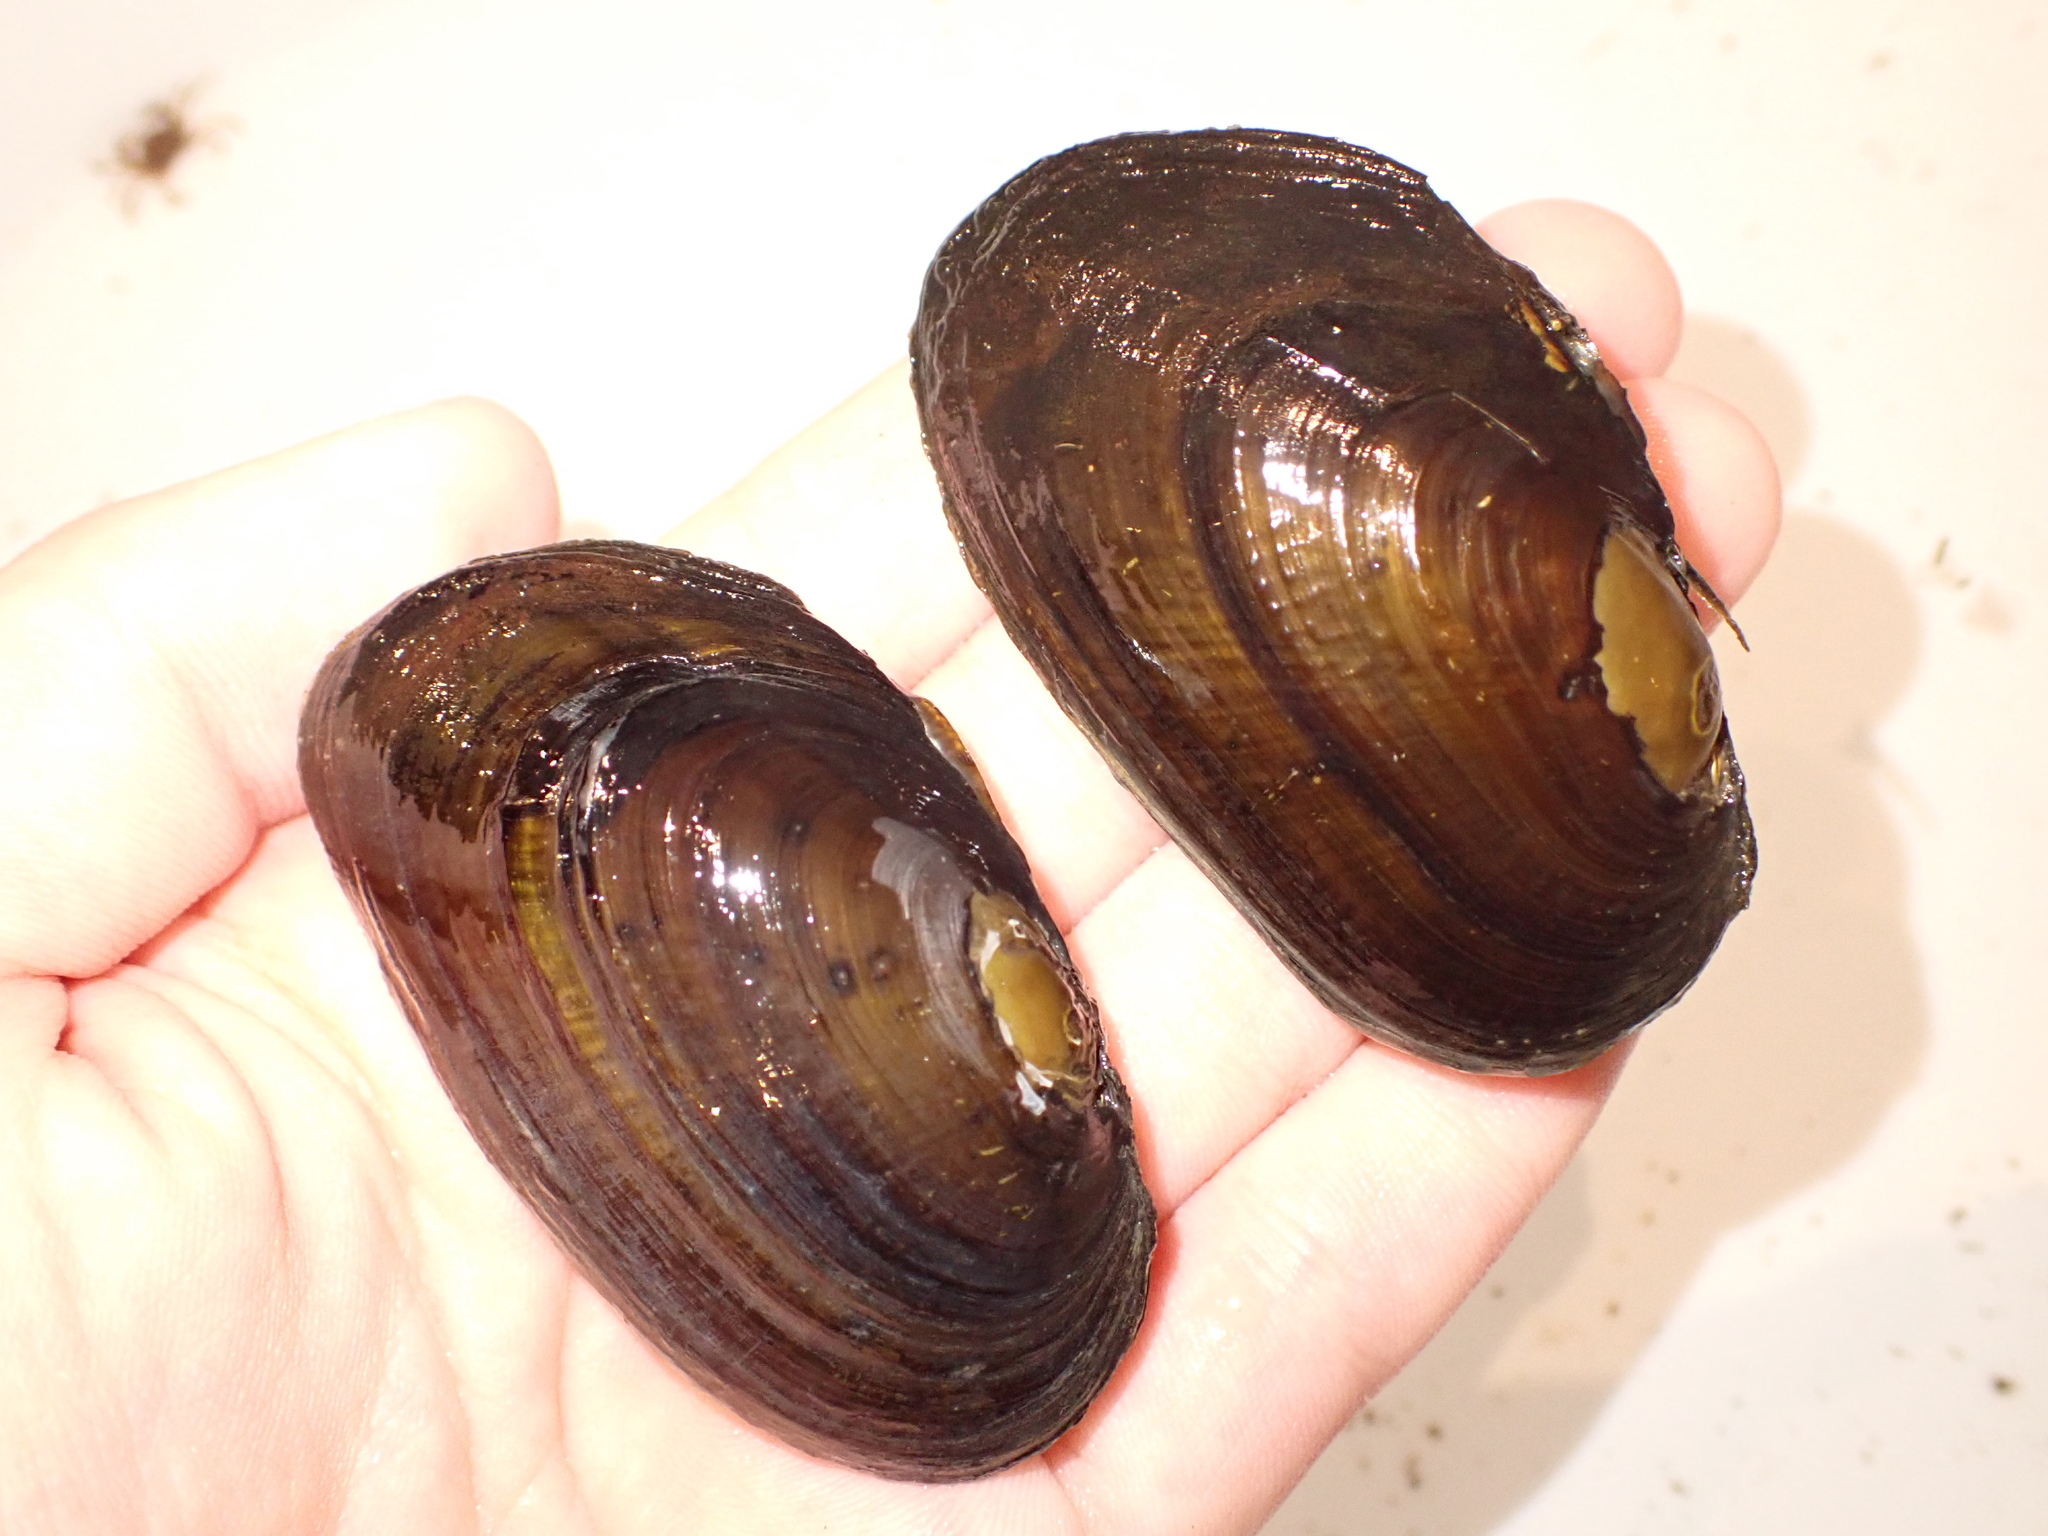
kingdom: Animalia
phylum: Mollusca
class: Bivalvia
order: Unionida
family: Hyriidae
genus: Echyridella
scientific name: Echyridella menziesii
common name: New zealand freshwater mussel
